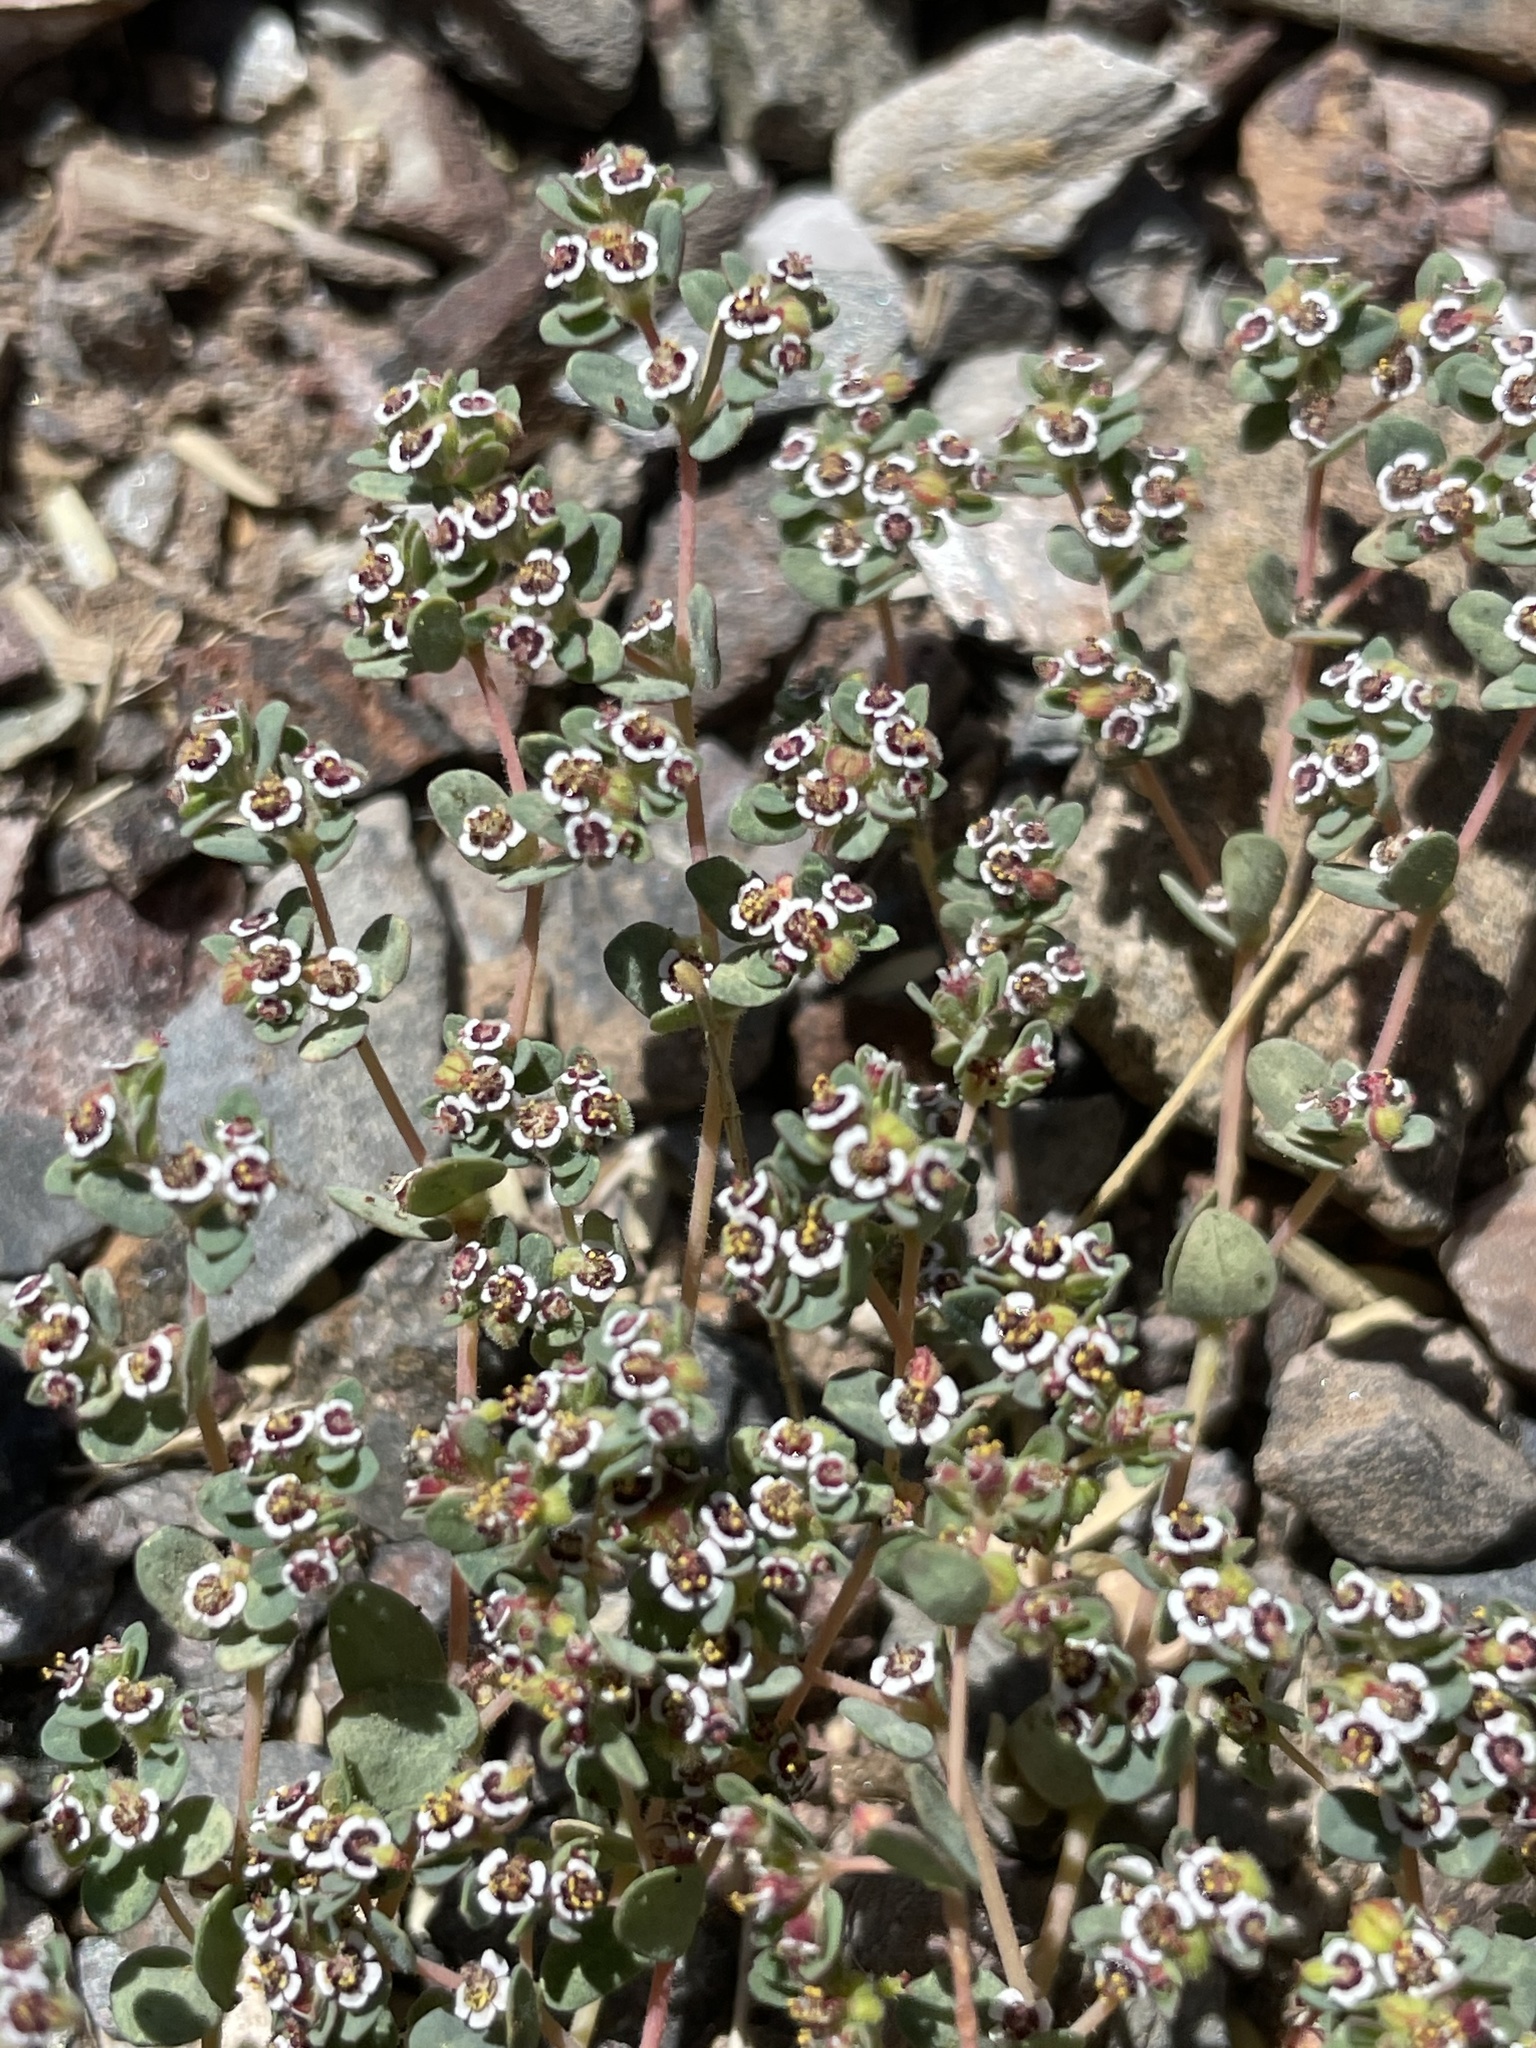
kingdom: Plantae
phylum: Tracheophyta
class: Magnoliopsida
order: Malpighiales
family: Euphorbiaceae
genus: Euphorbia
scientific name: Euphorbia polycarpa
